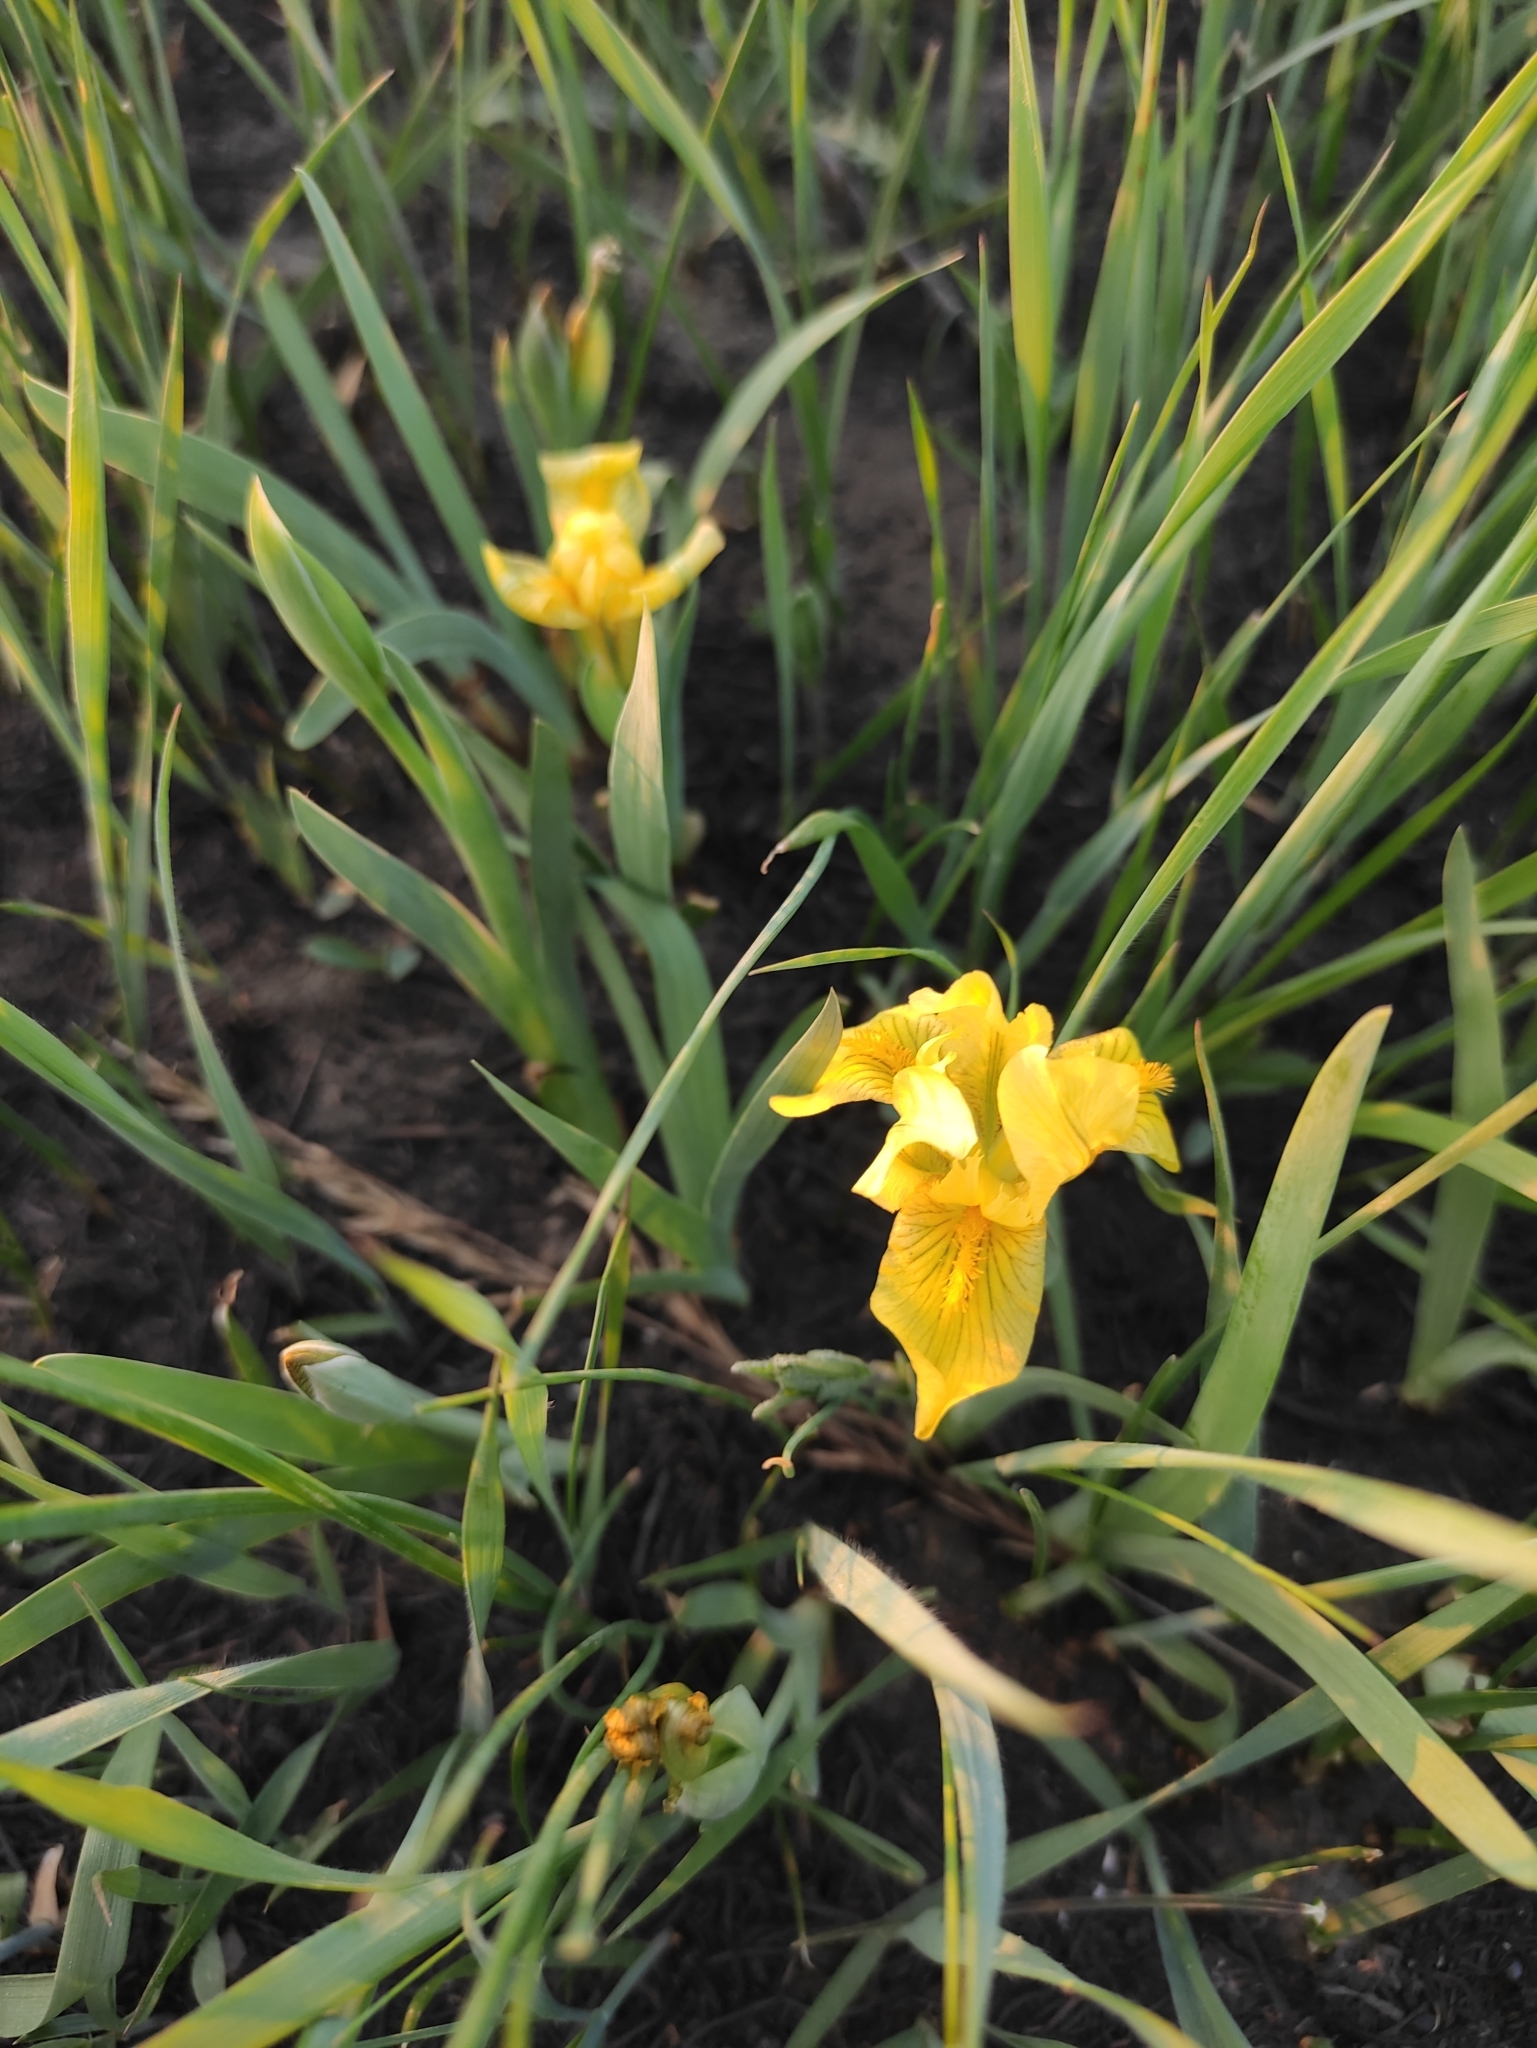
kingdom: Plantae
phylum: Tracheophyta
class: Liliopsida
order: Asparagales
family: Iridaceae
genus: Iris
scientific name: Iris humilis
